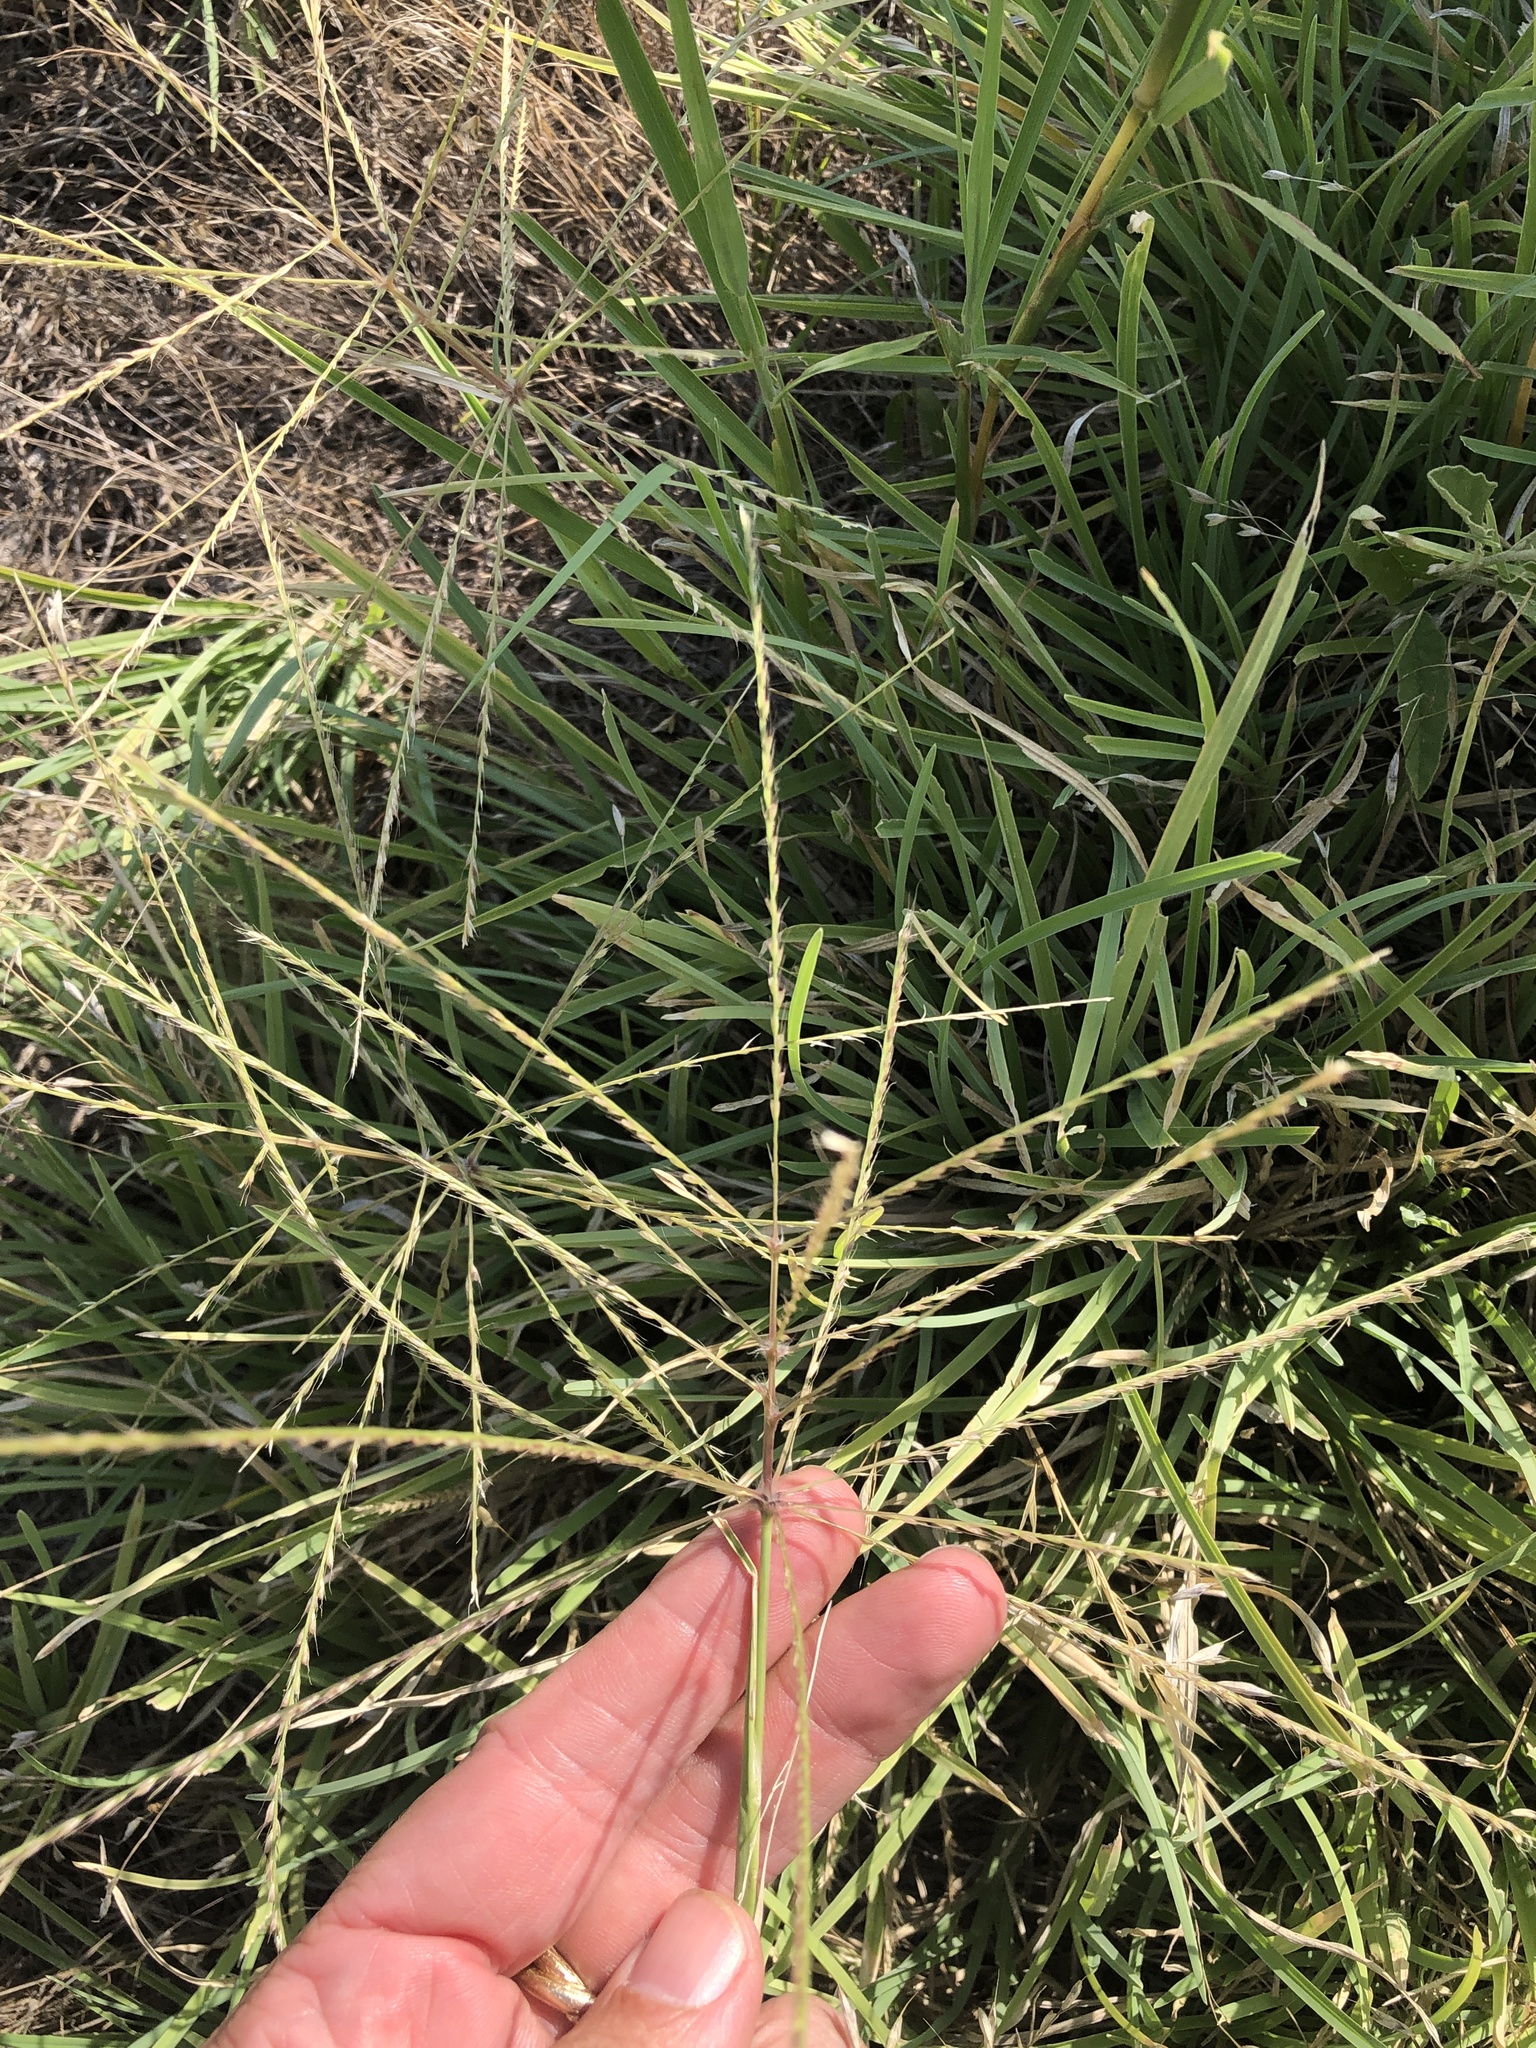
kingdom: Plantae
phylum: Tracheophyta
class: Liliopsida
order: Poales
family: Poaceae
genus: Chloris
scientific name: Chloris verticillata
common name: Tumble windmill grass
